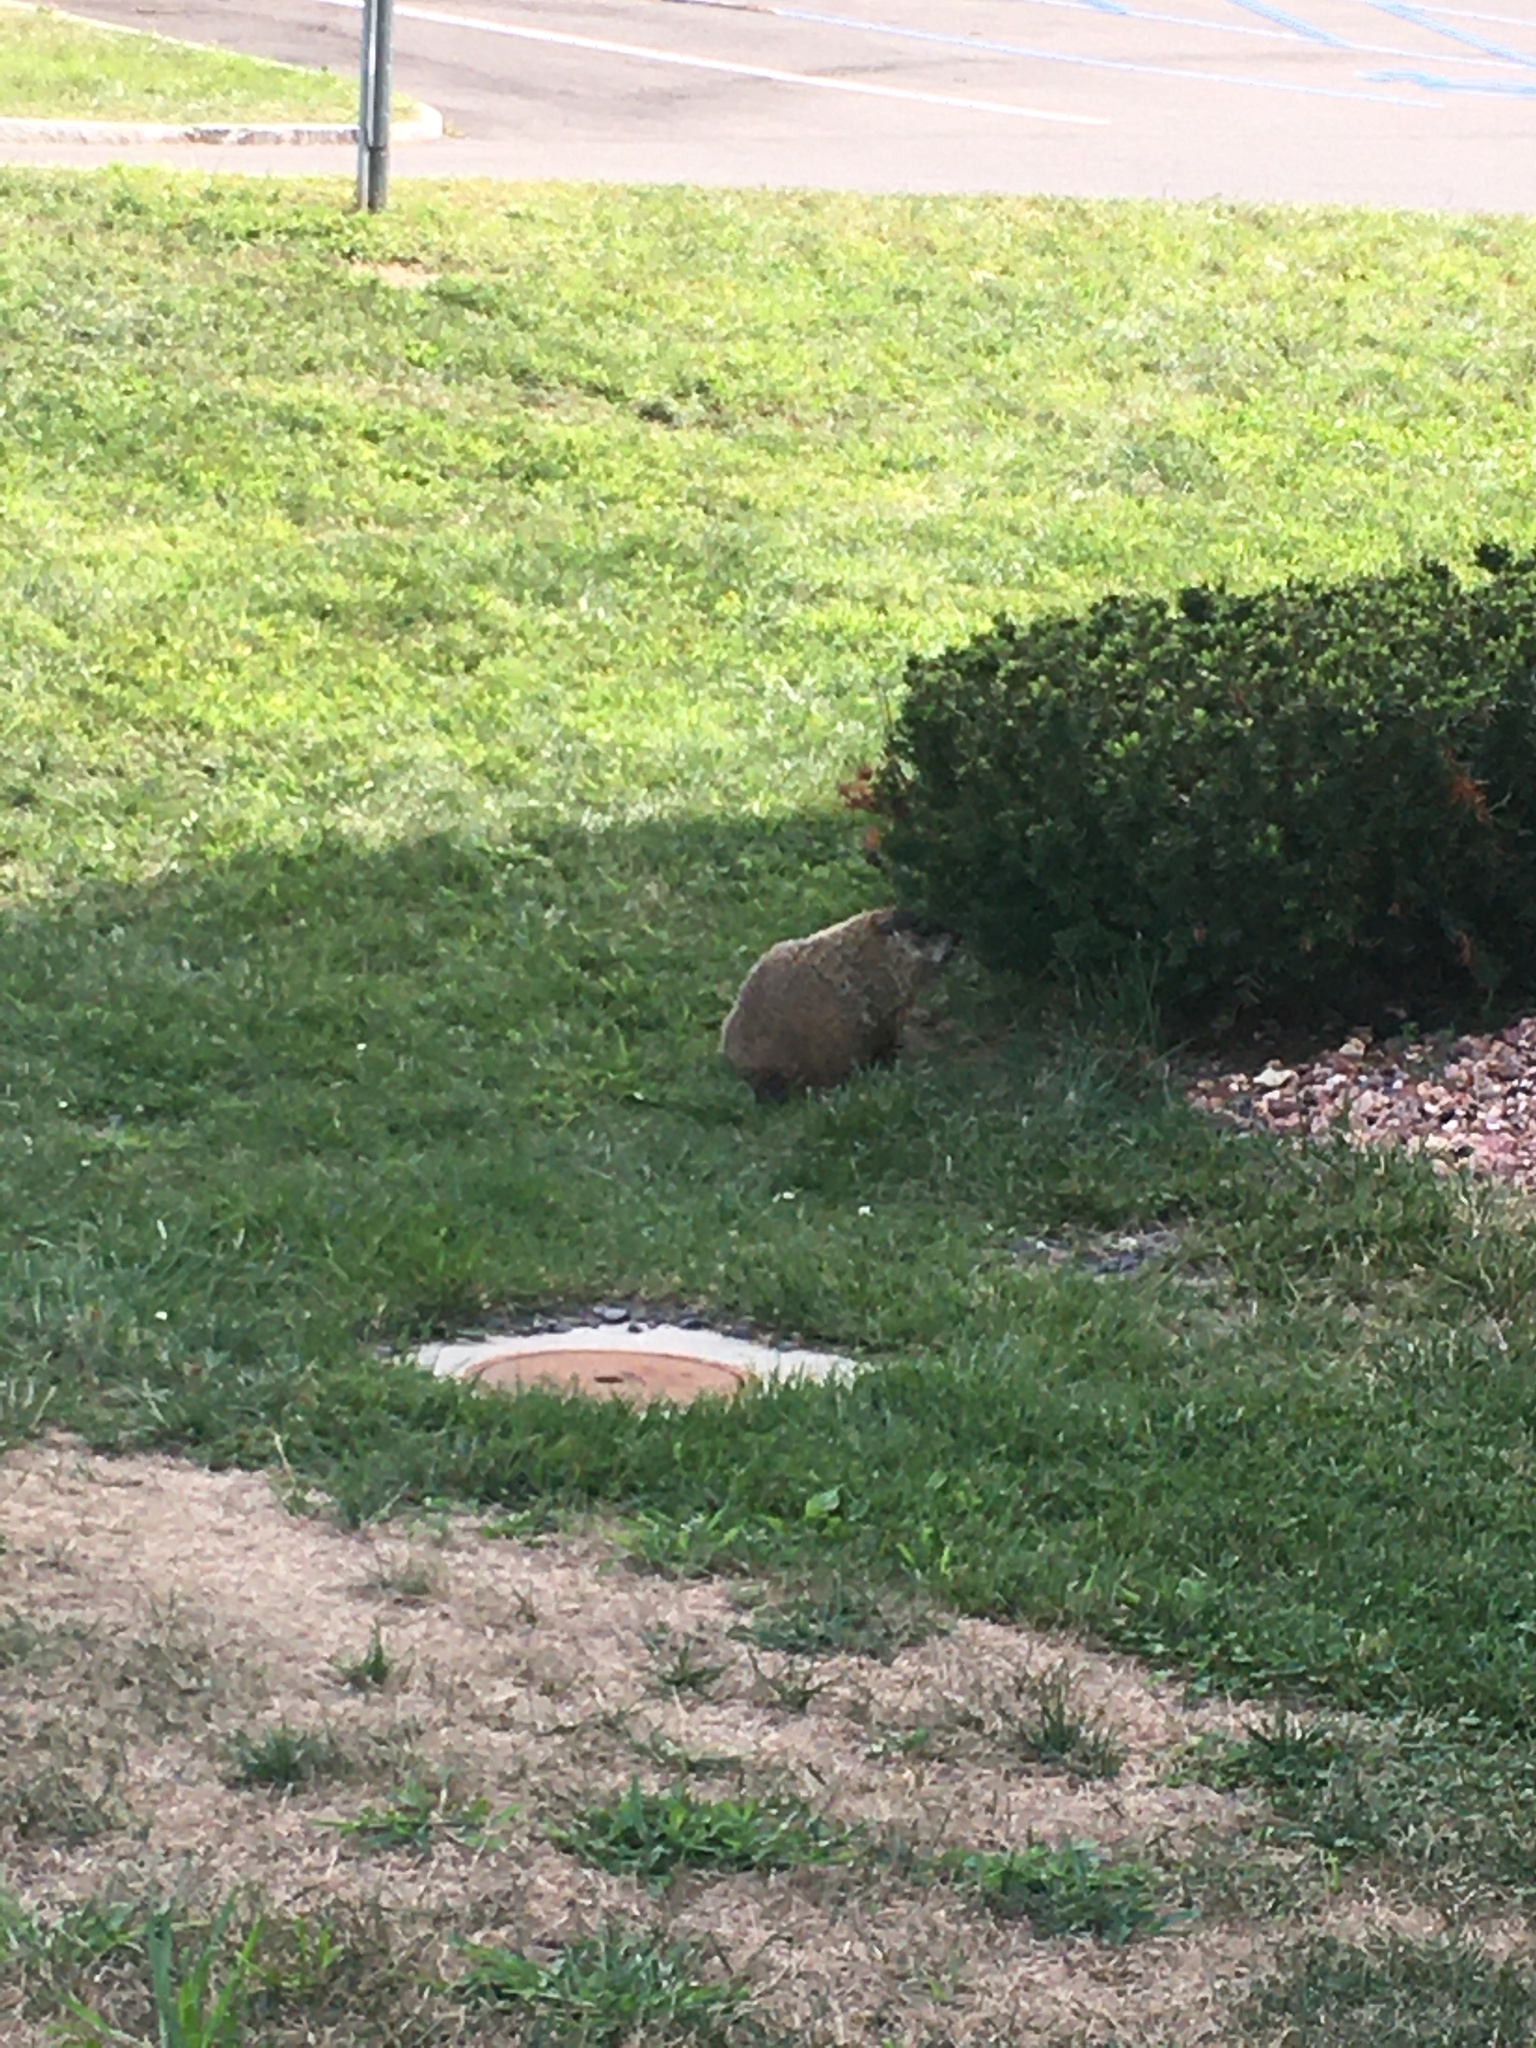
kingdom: Animalia
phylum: Chordata
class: Mammalia
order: Rodentia
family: Sciuridae
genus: Marmota
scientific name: Marmota monax
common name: Groundhog
